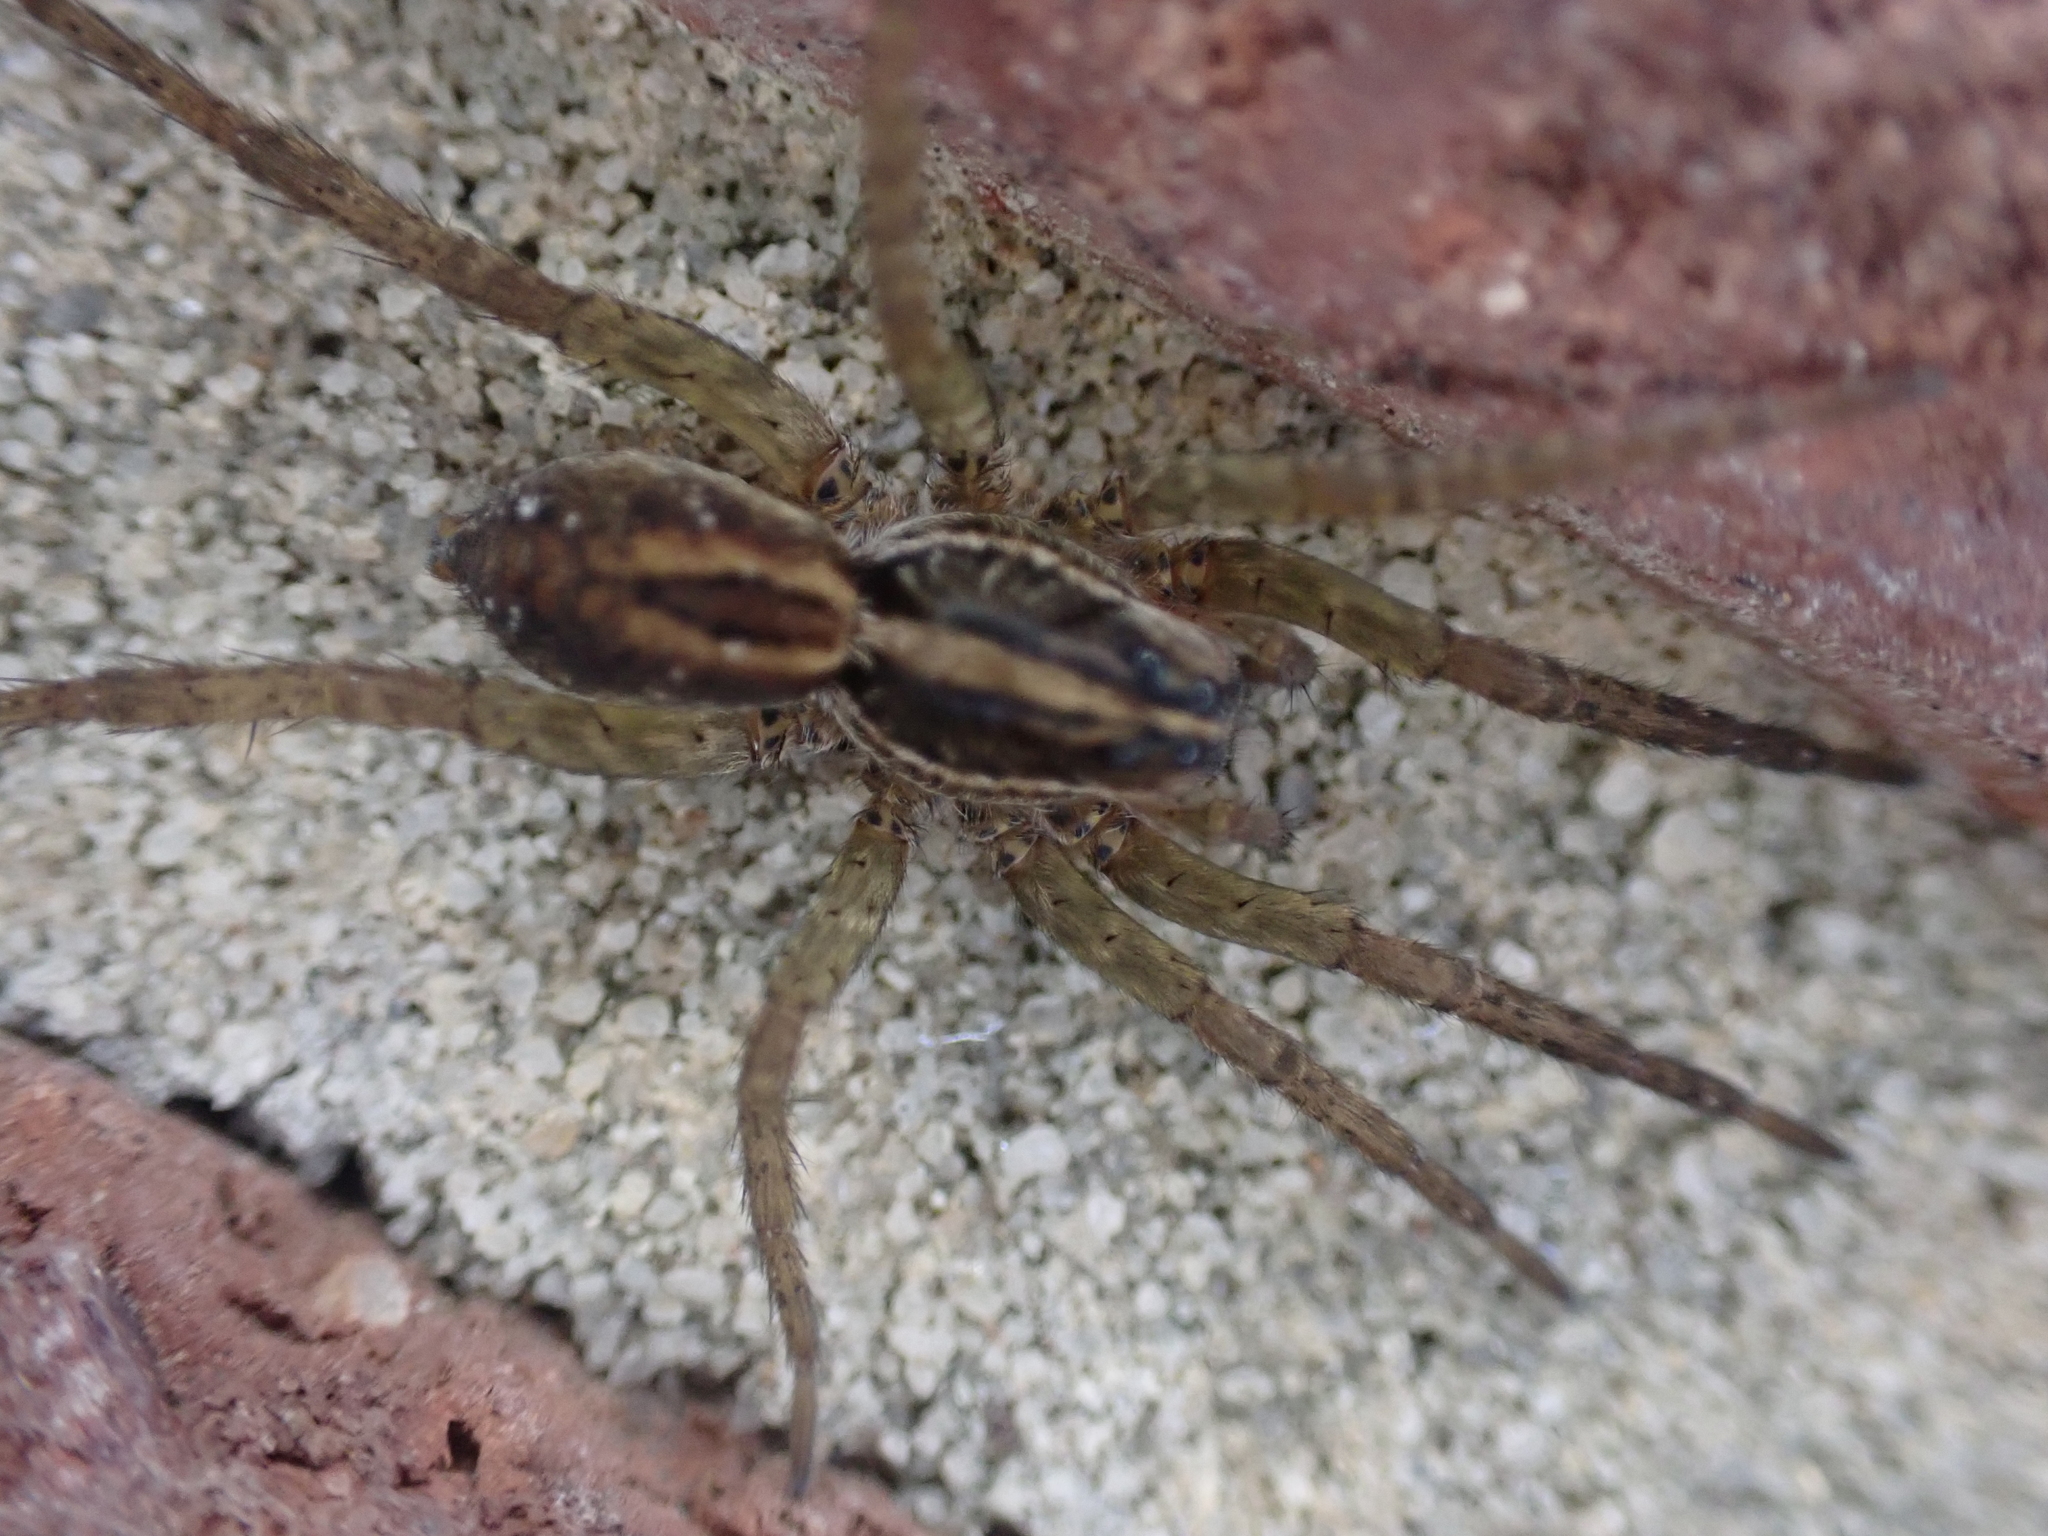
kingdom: Animalia
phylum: Arthropoda
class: Arachnida
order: Araneae
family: Lycosidae
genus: Tigrosa
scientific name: Tigrosa annexa
